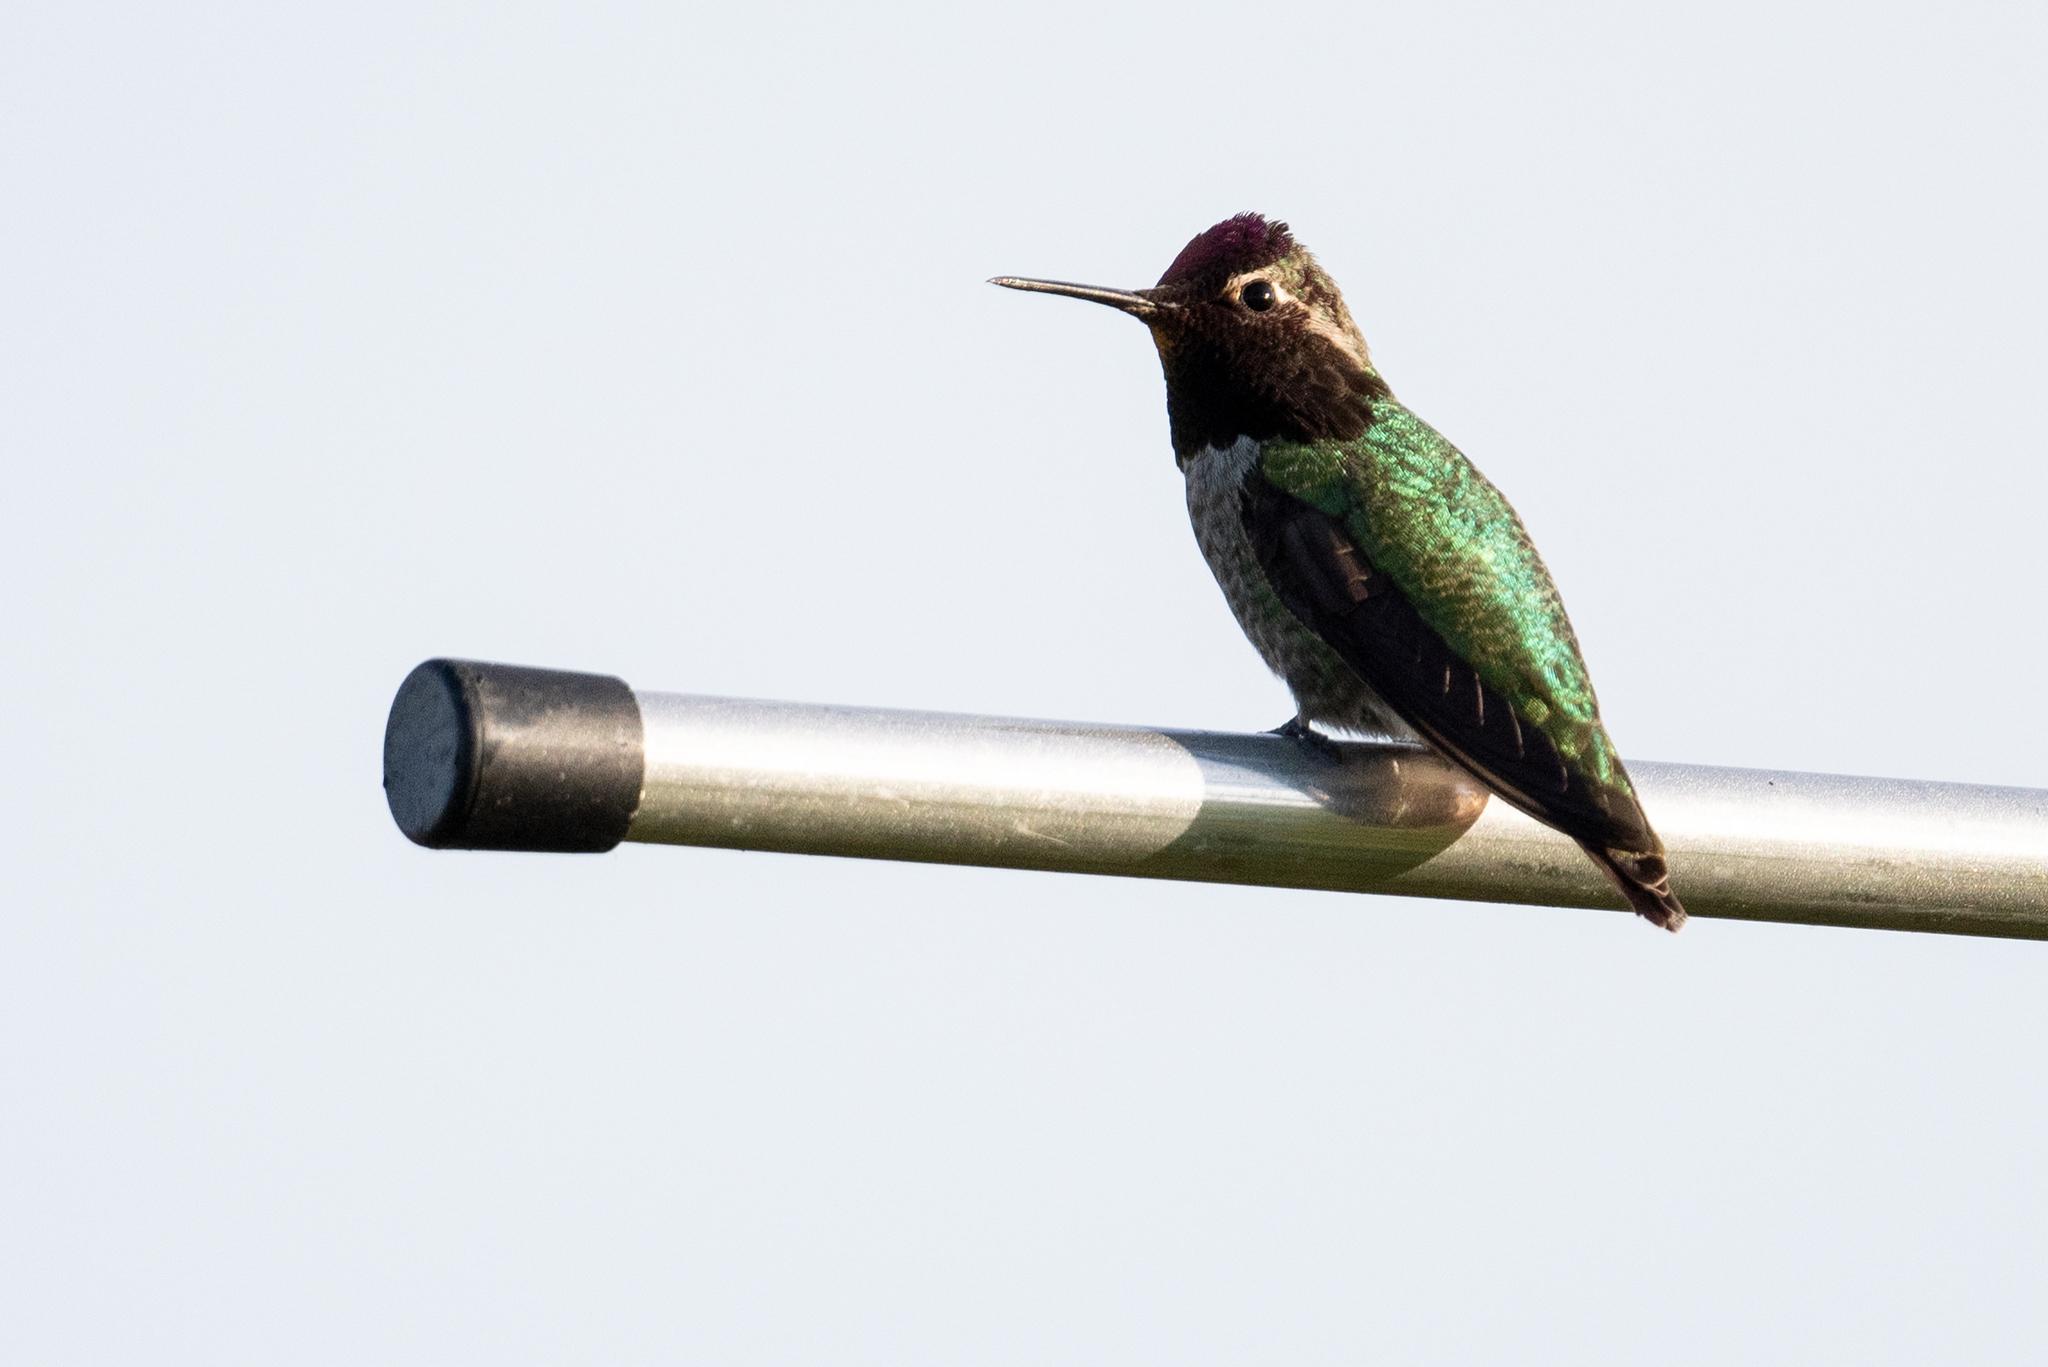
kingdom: Animalia
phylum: Chordata
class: Aves
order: Apodiformes
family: Trochilidae
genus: Calypte
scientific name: Calypte anna
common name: Anna's hummingbird
